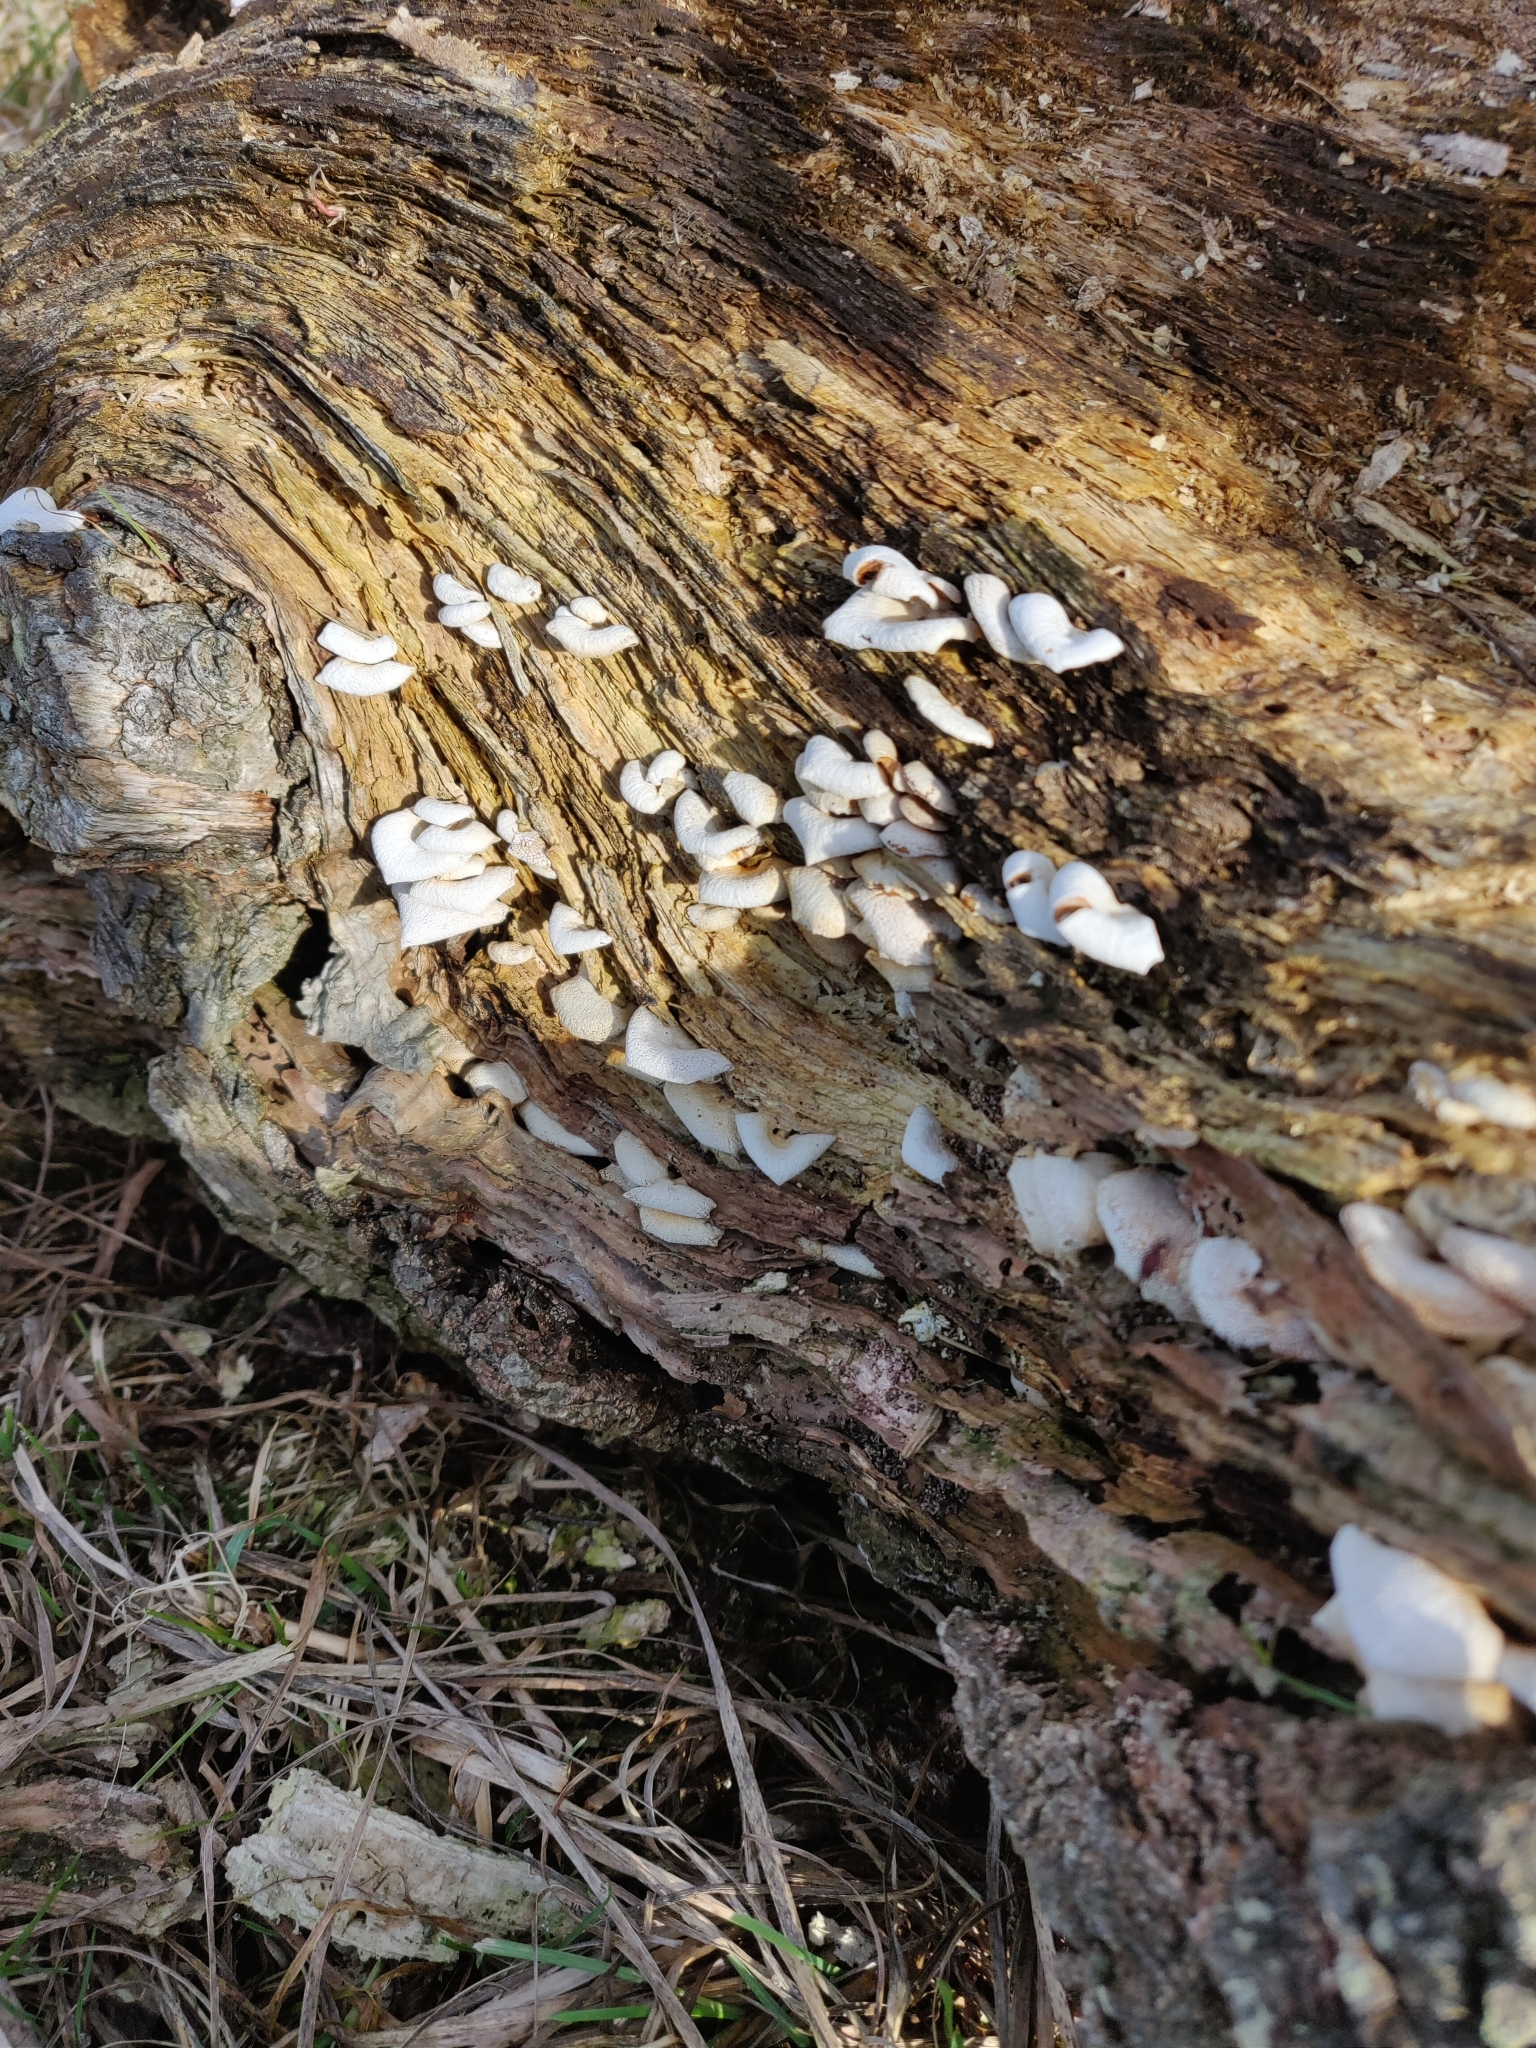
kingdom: Fungi
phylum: Basidiomycota
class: Agaricomycetes
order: Agaricales
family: Mycenaceae
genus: Panellus
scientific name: Panellus stipticus
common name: Bitter oysterling
